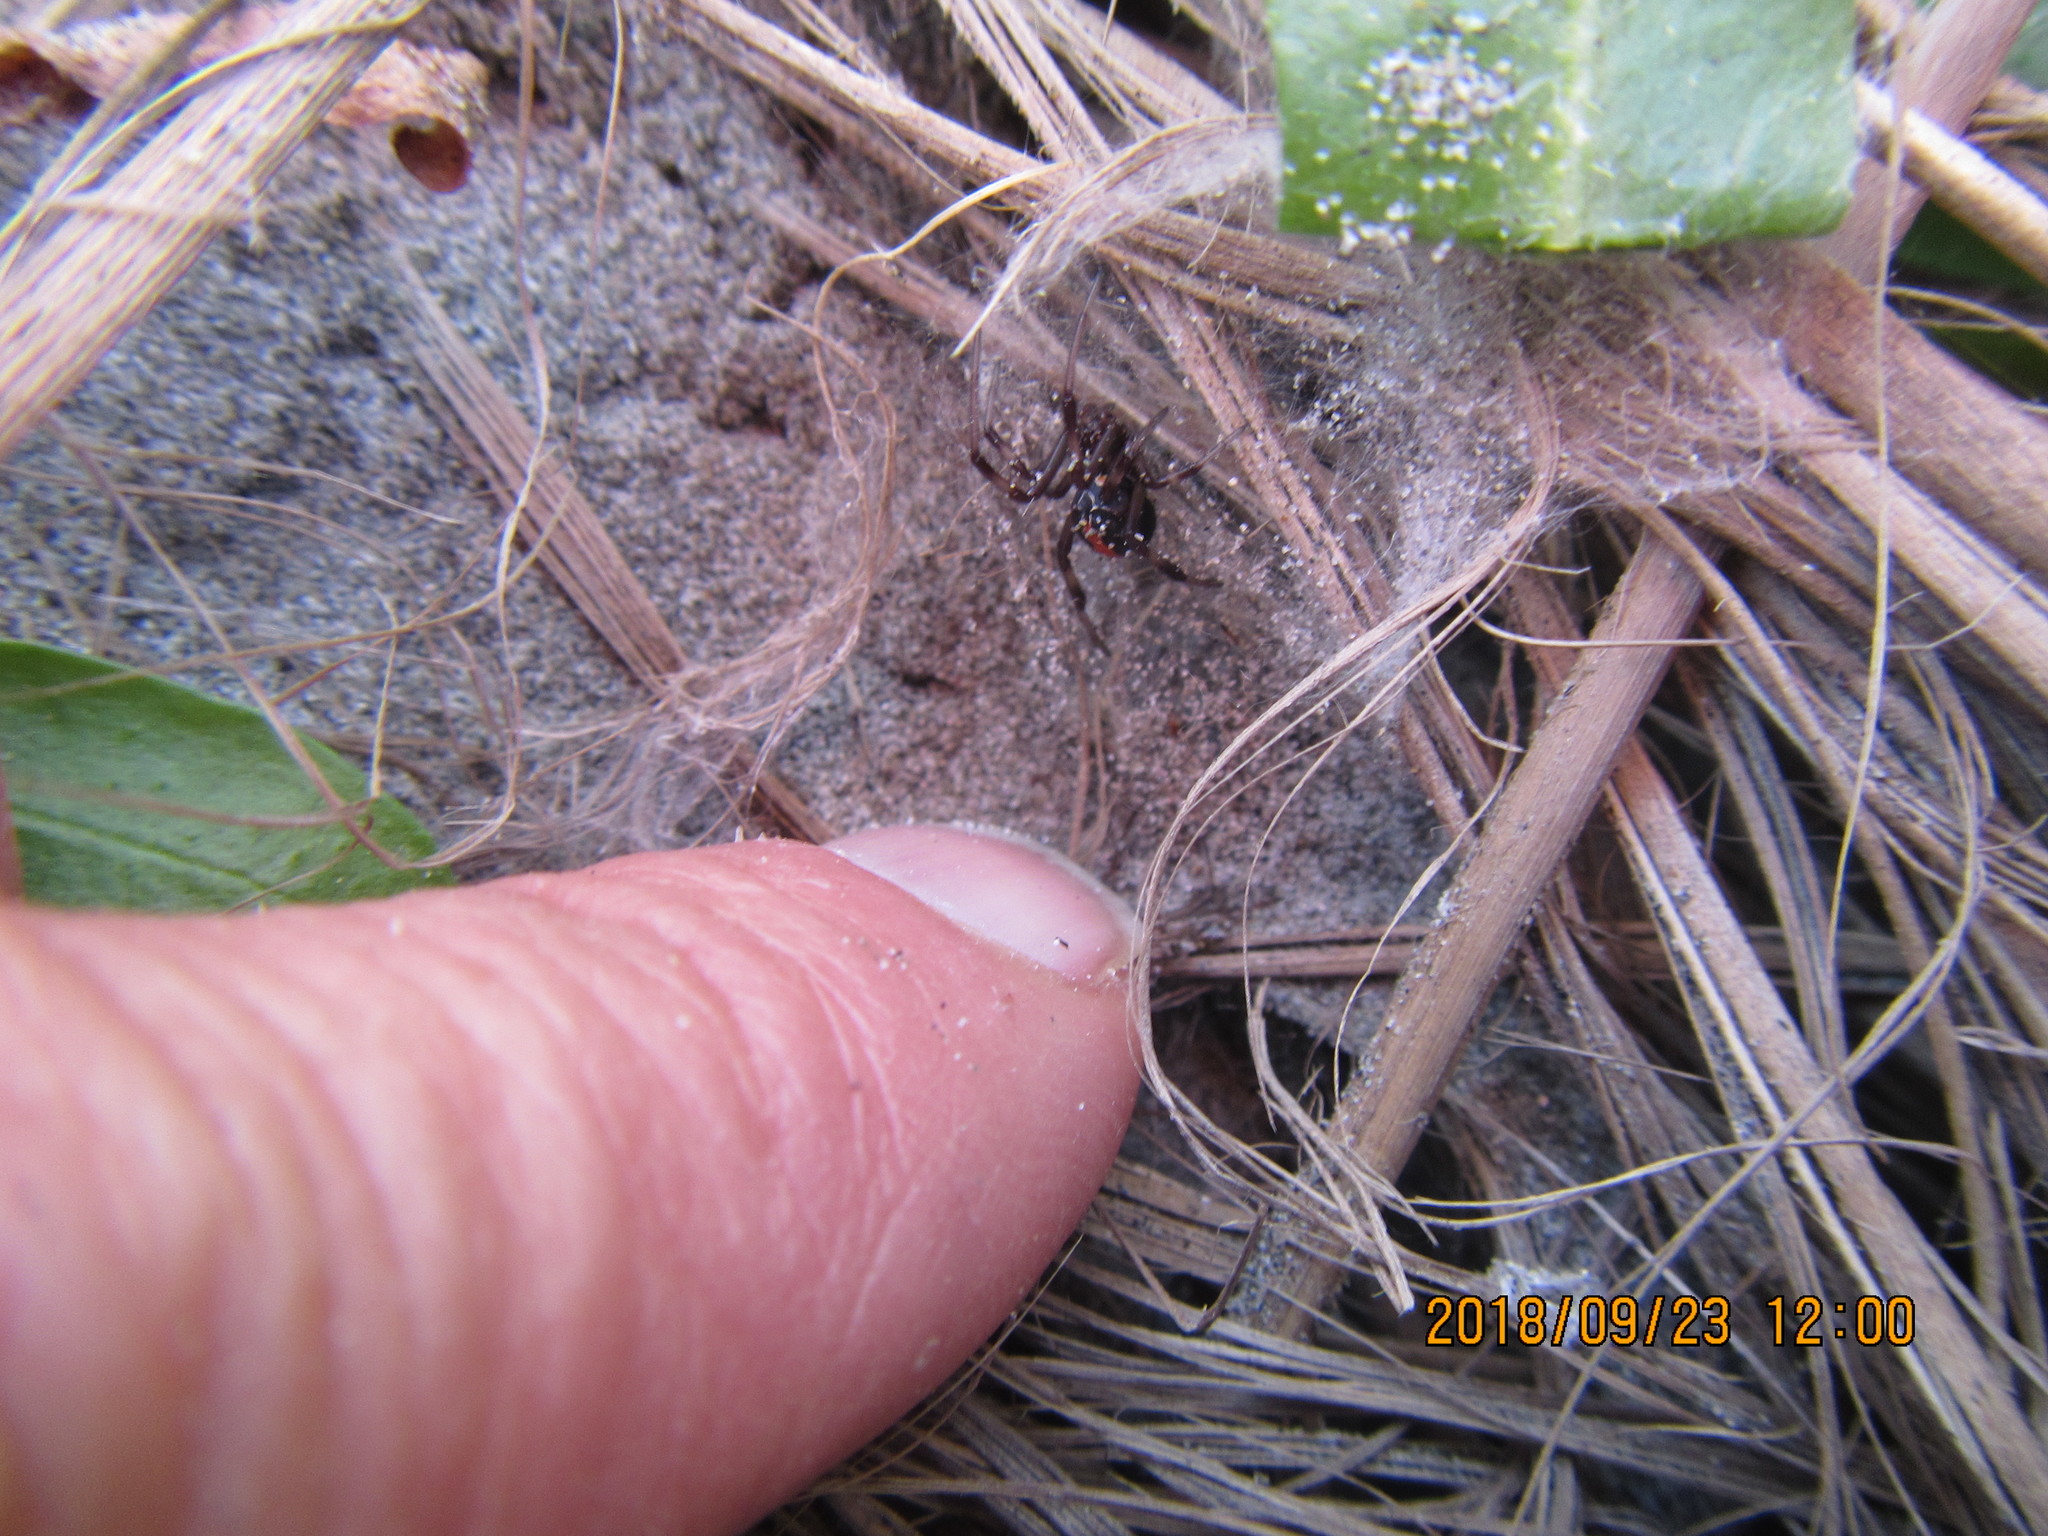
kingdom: Animalia
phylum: Arthropoda
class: Arachnida
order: Araneae
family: Theridiidae
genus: Latrodectus
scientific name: Latrodectus katipo
